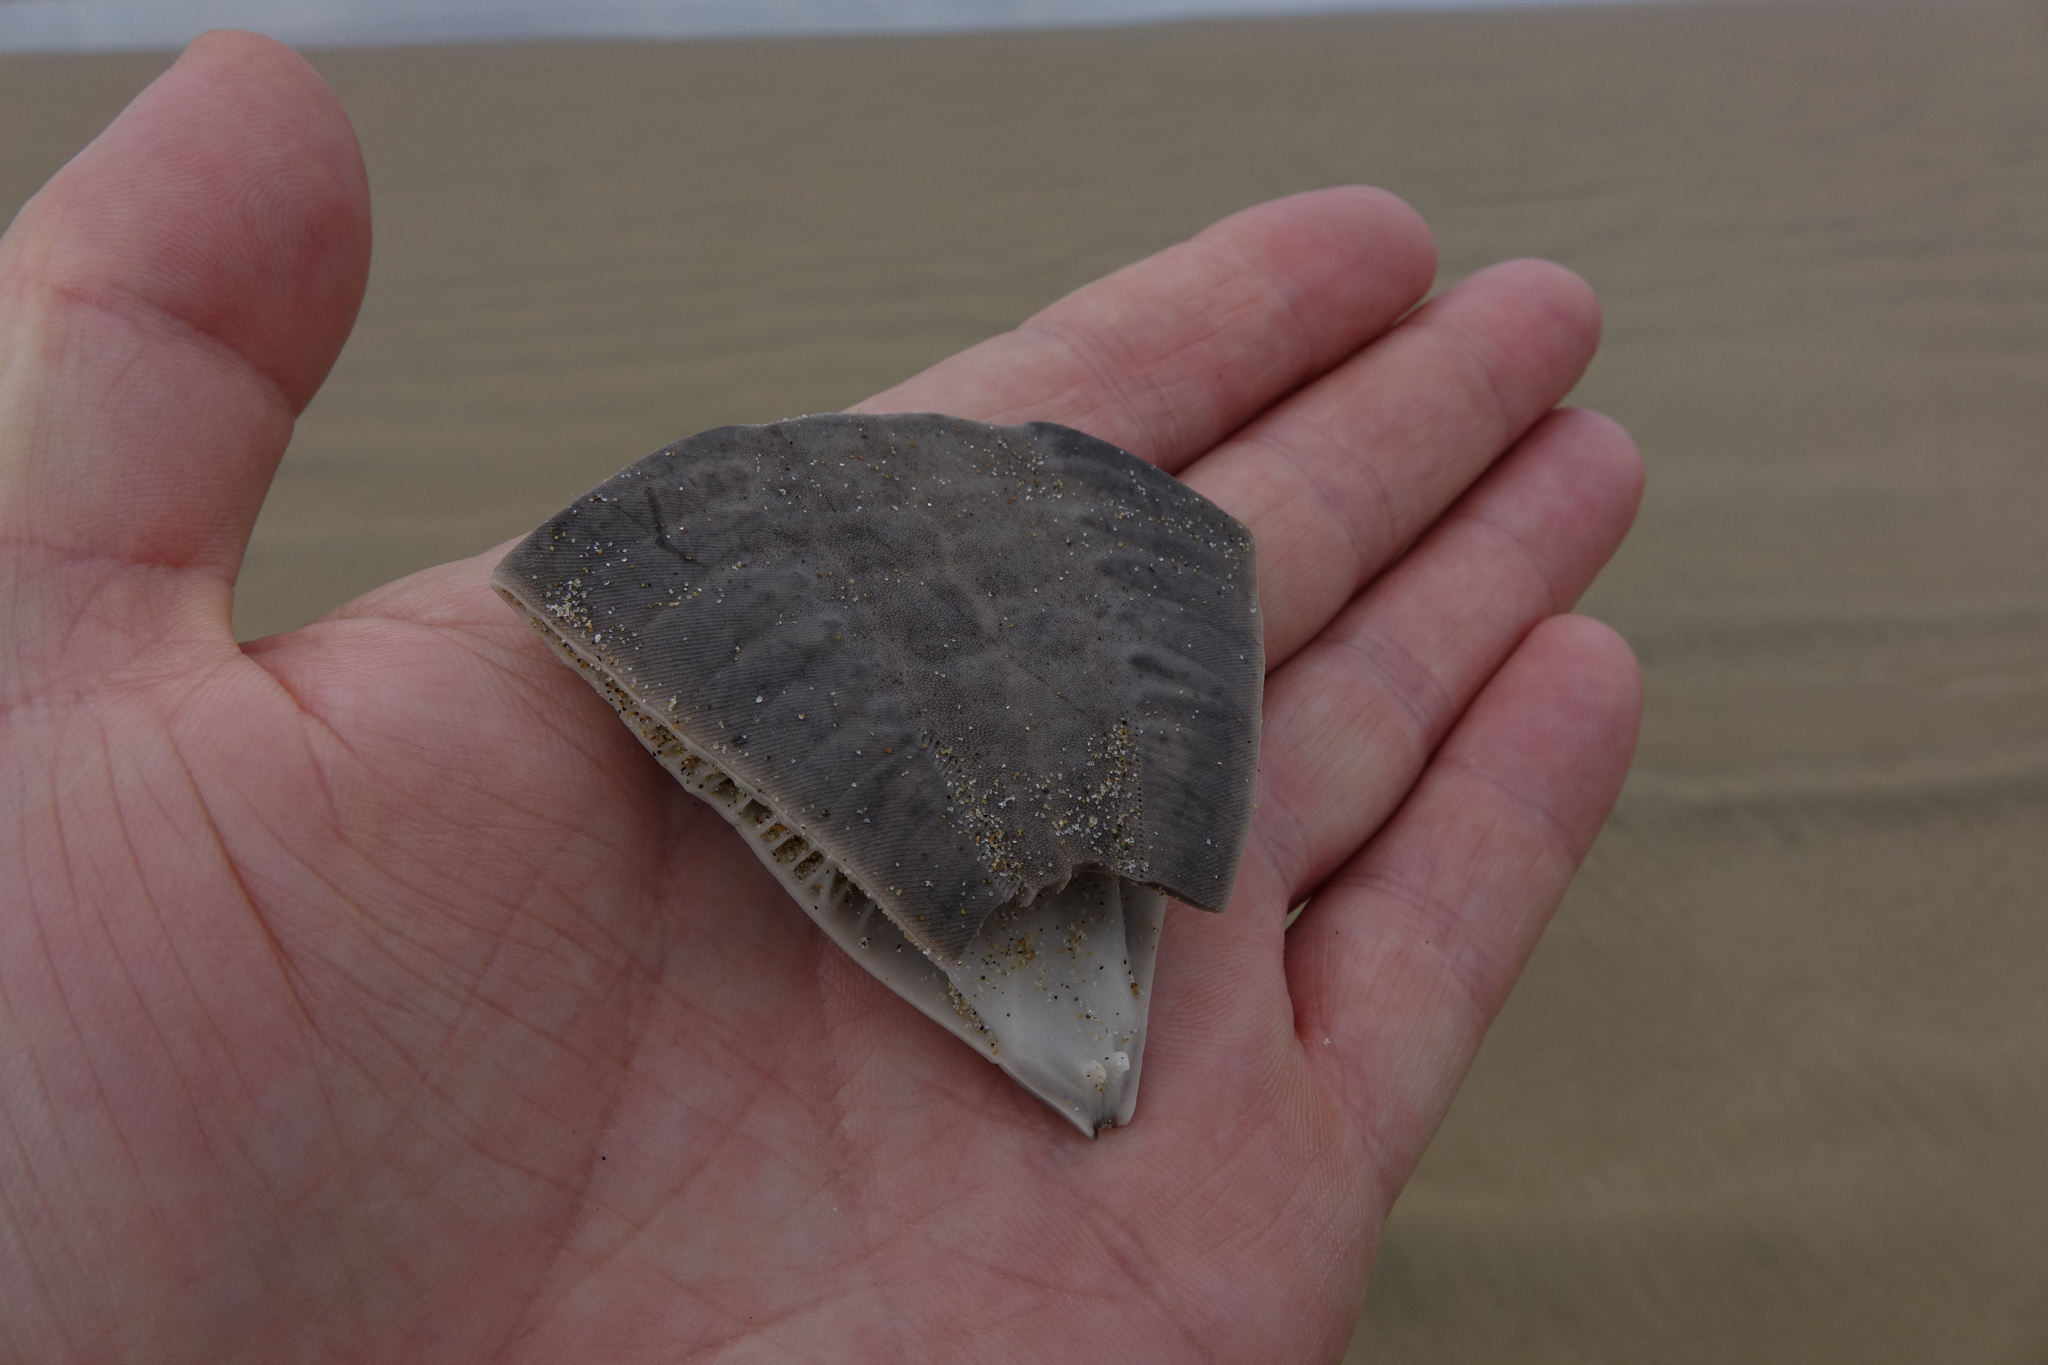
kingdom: Animalia
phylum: Echinodermata
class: Echinoidea
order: Clypeasteroida
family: Clypeasteridae
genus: Fellaster
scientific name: Fellaster zelandiae
